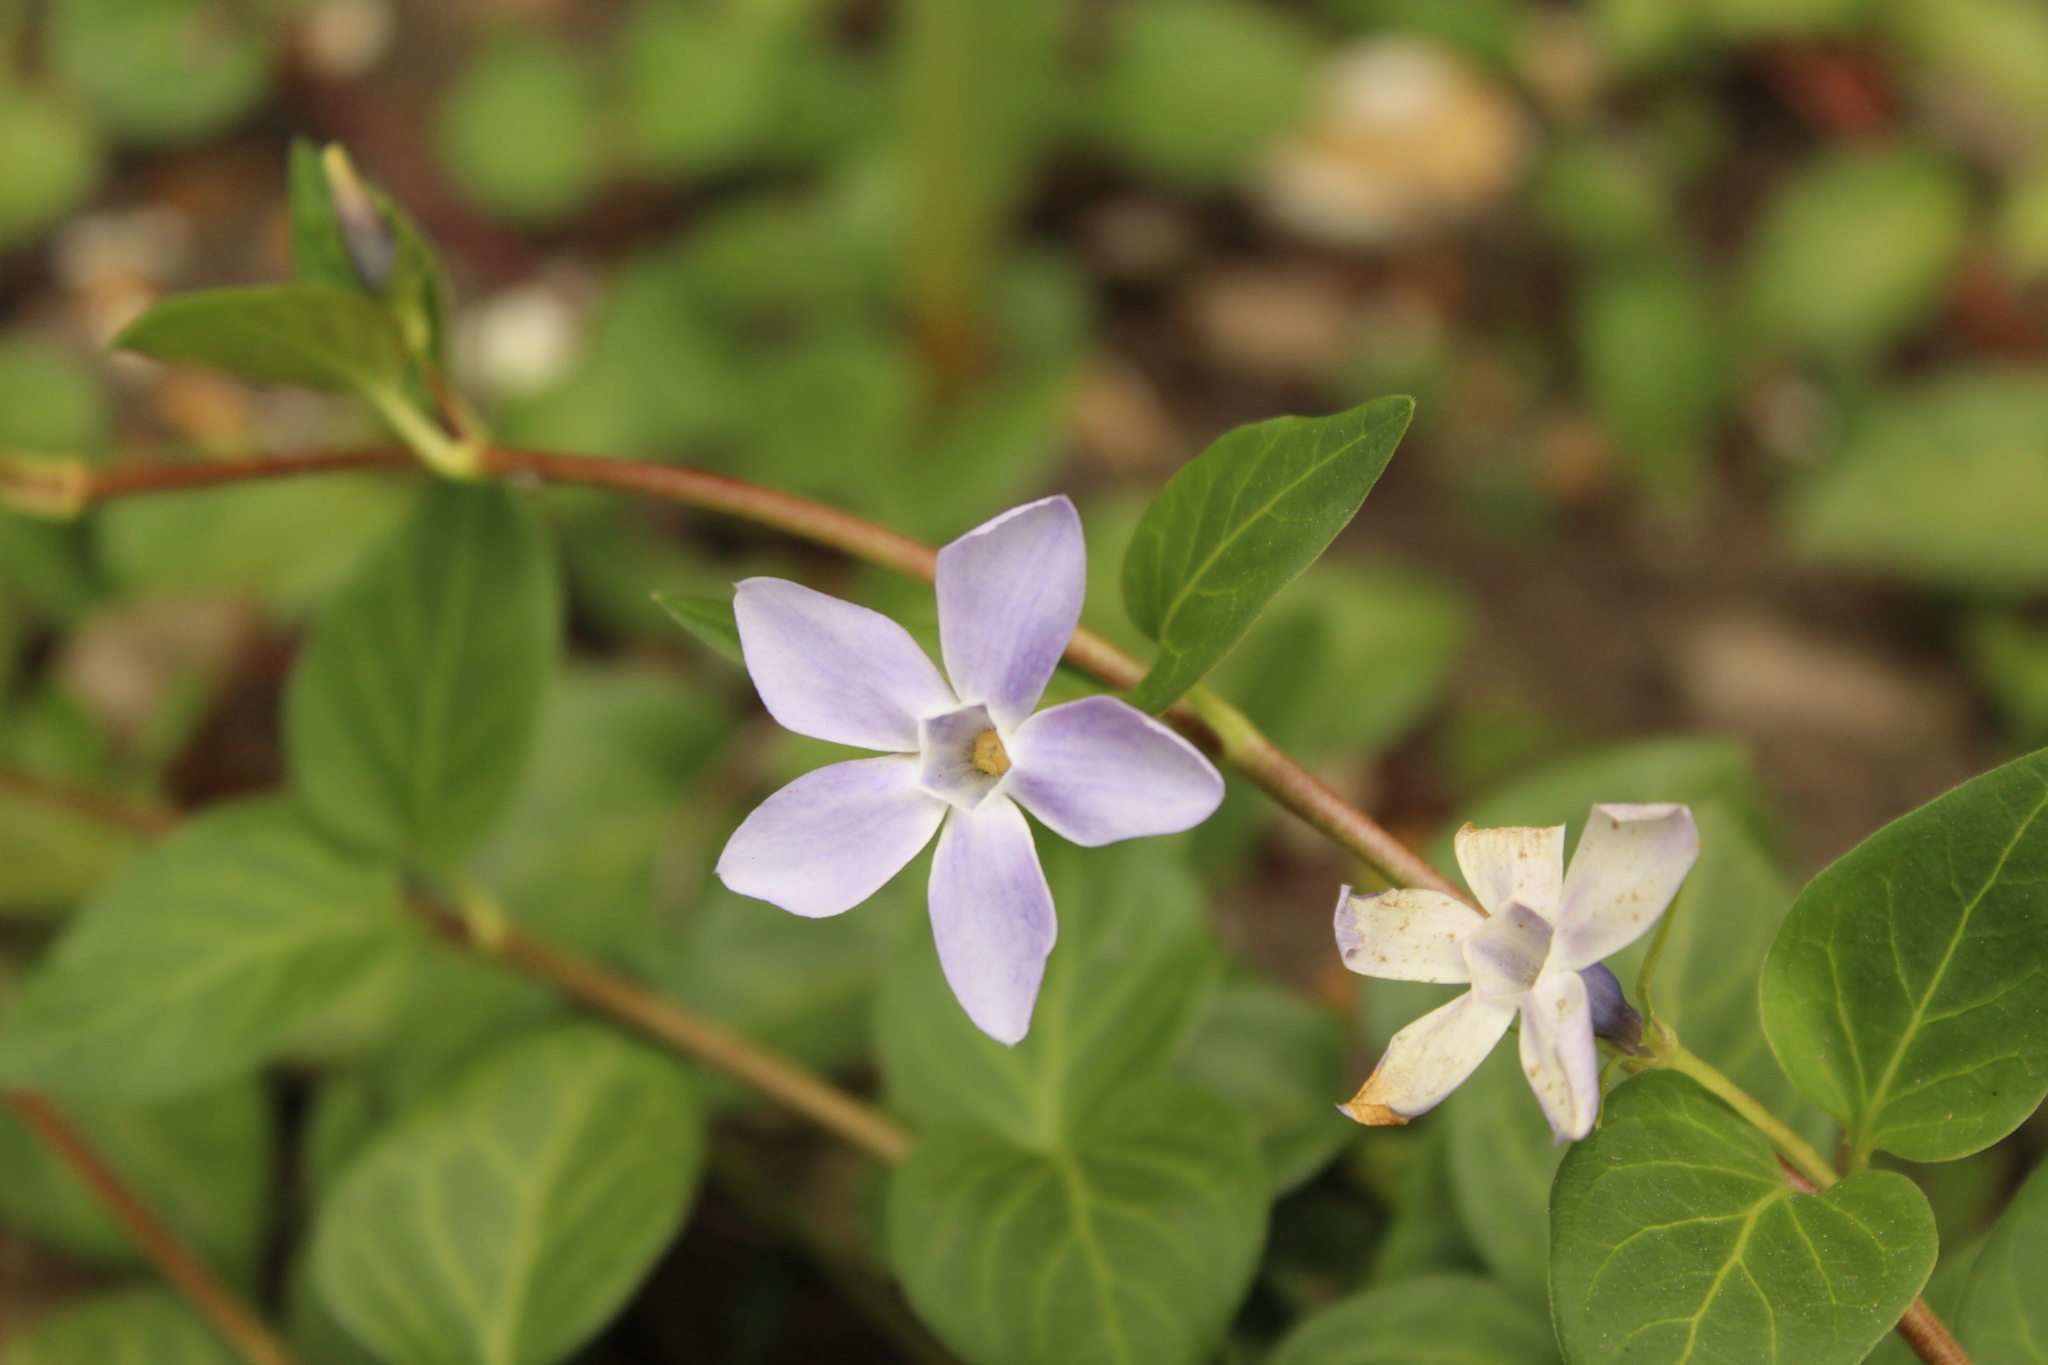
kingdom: Plantae
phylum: Tracheophyta
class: Magnoliopsida
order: Gentianales
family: Apocynaceae
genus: Vinca
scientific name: Vinca major
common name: Greater periwinkle
